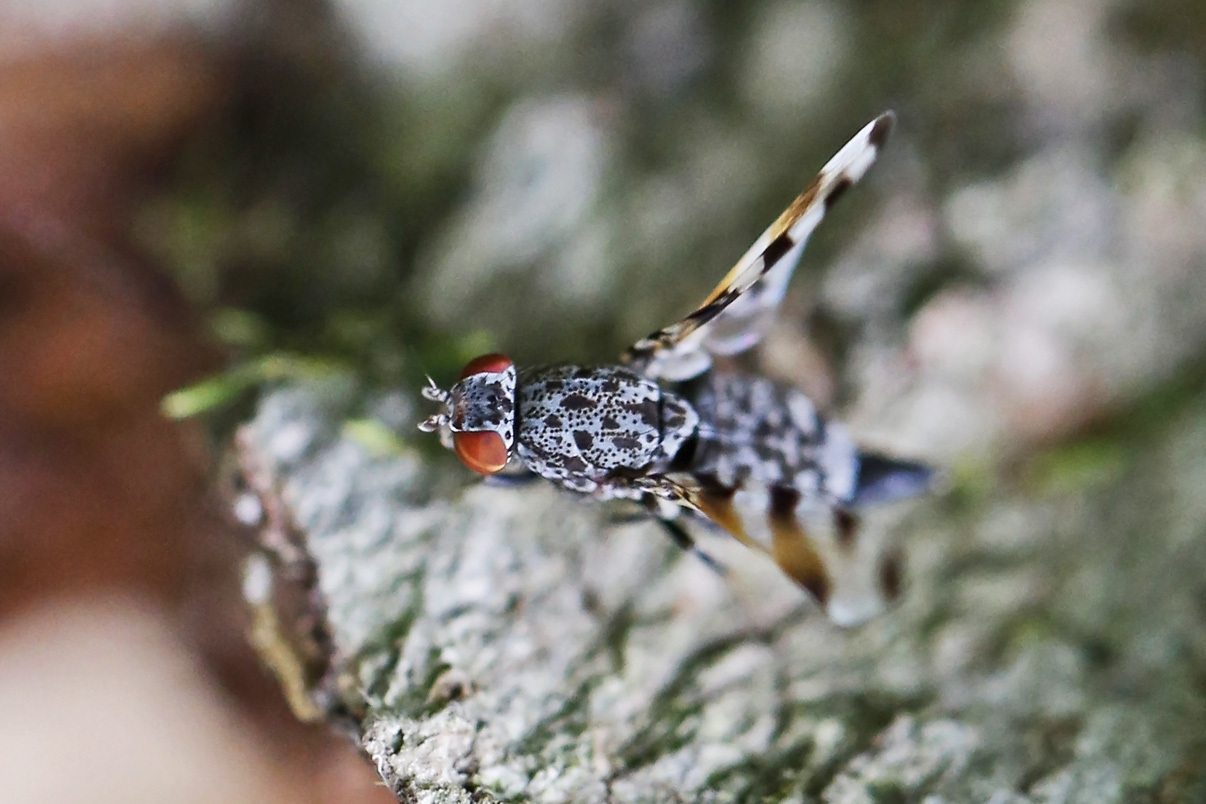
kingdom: Animalia
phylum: Arthropoda
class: Insecta
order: Diptera
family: Ulidiidae
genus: Pseudotephritis
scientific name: Pseudotephritis vau
